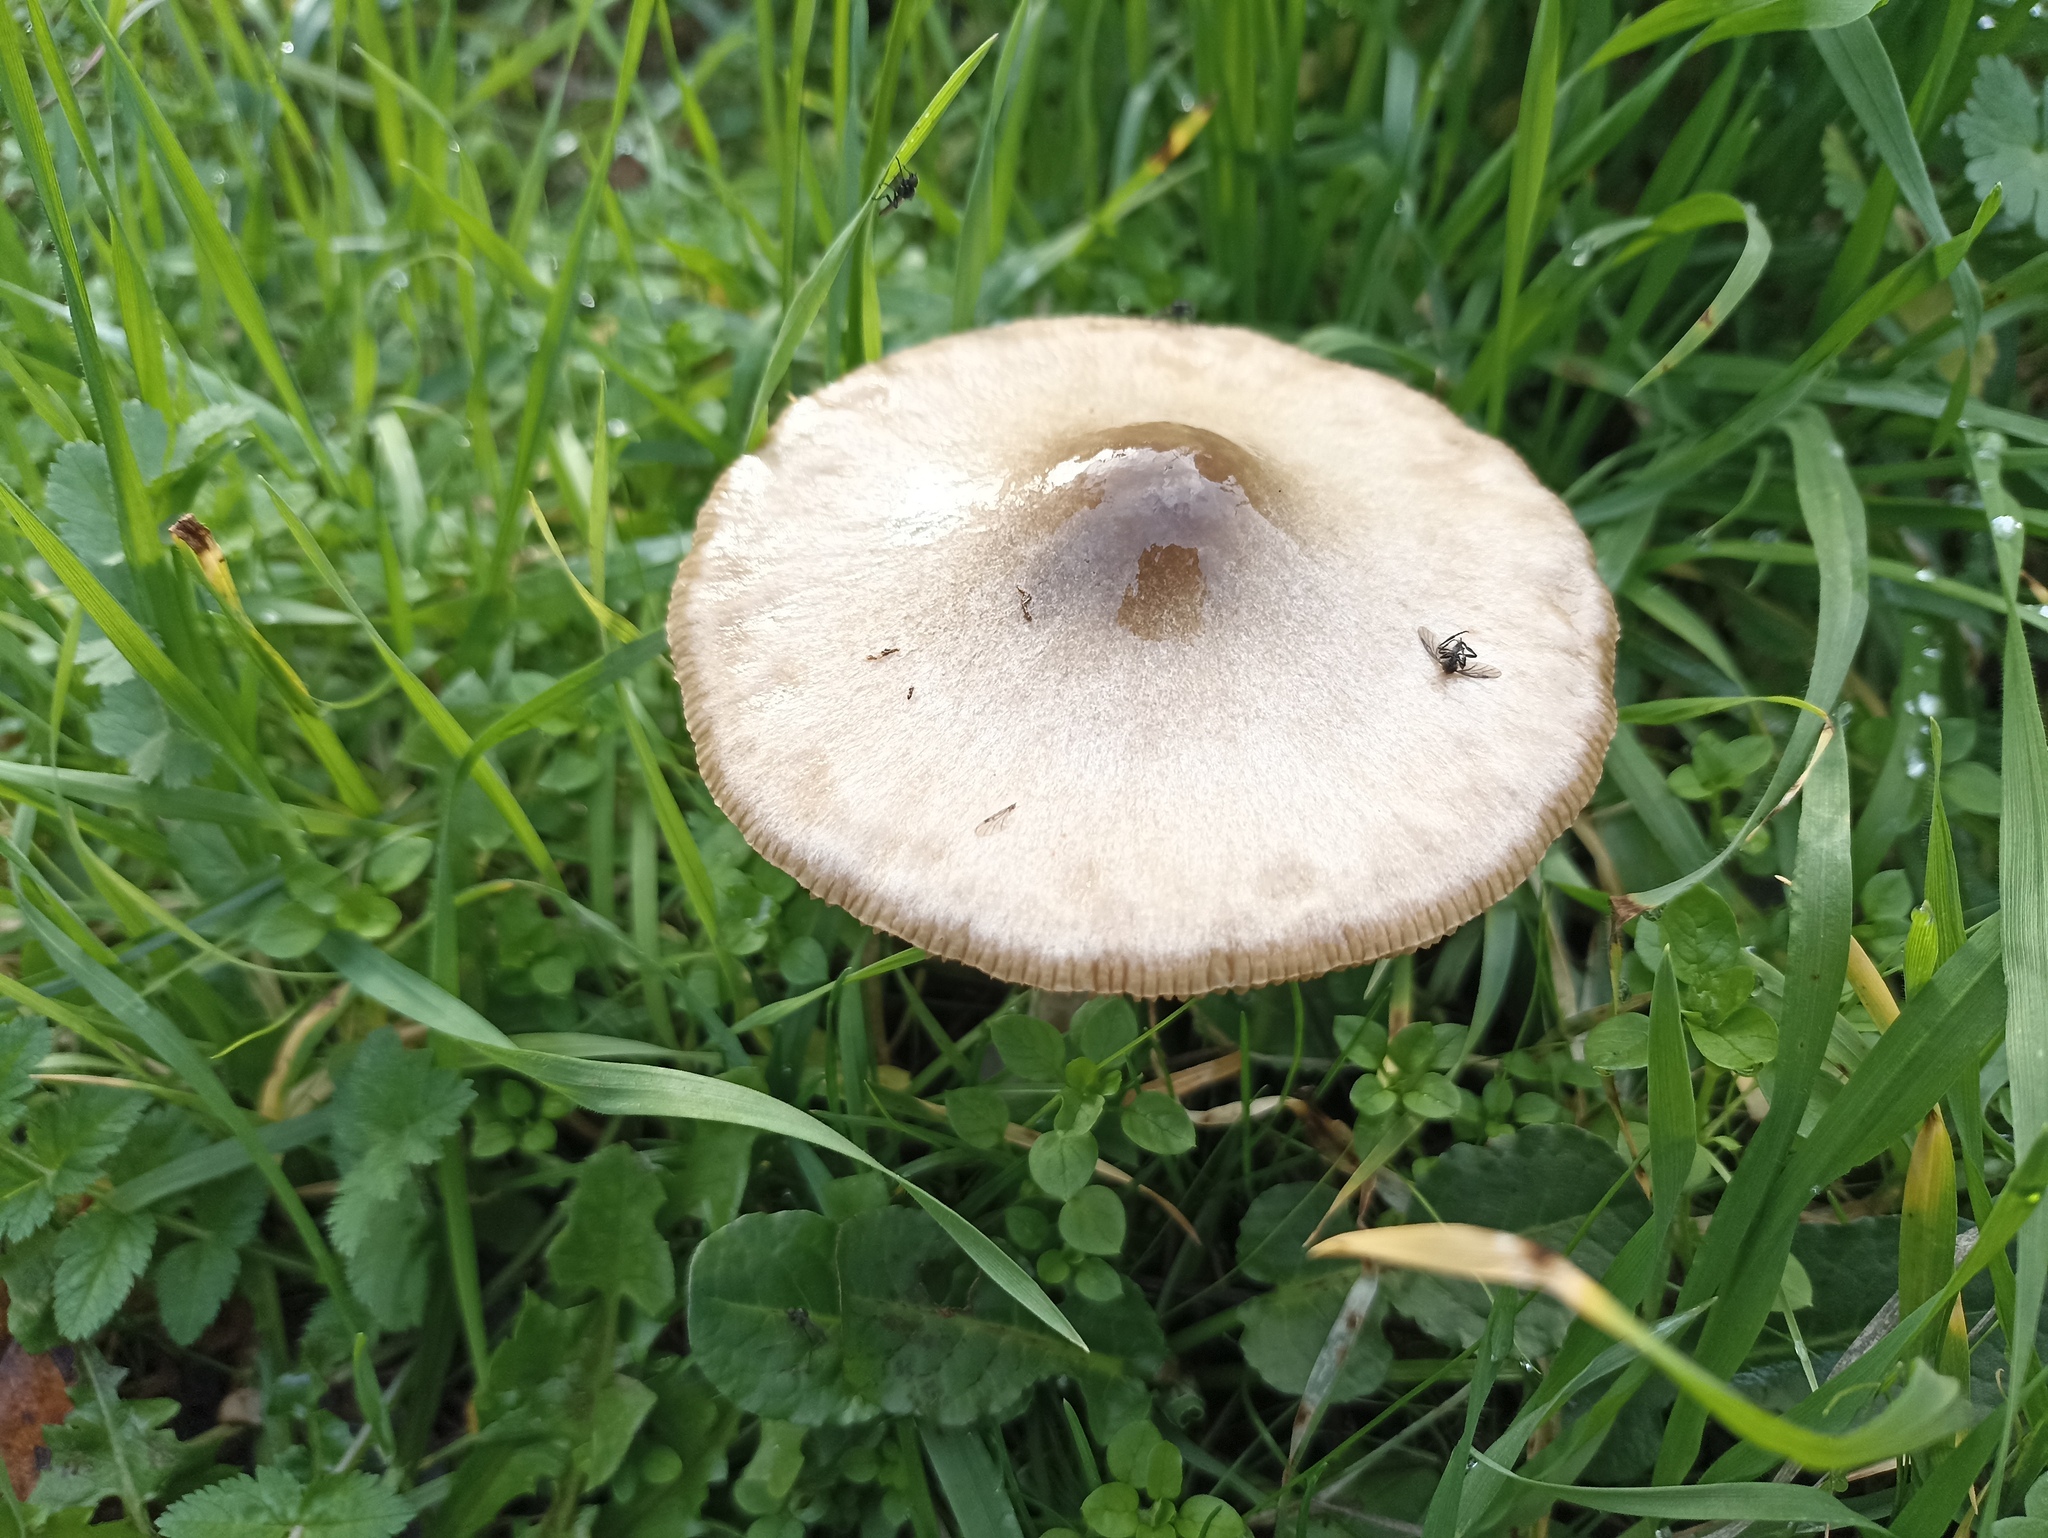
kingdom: Fungi
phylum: Basidiomycota
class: Agaricomycetes
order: Agaricales
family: Pluteaceae
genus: Volvopluteus
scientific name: Volvopluteus gloiocephalus
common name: Stubble rosegill
